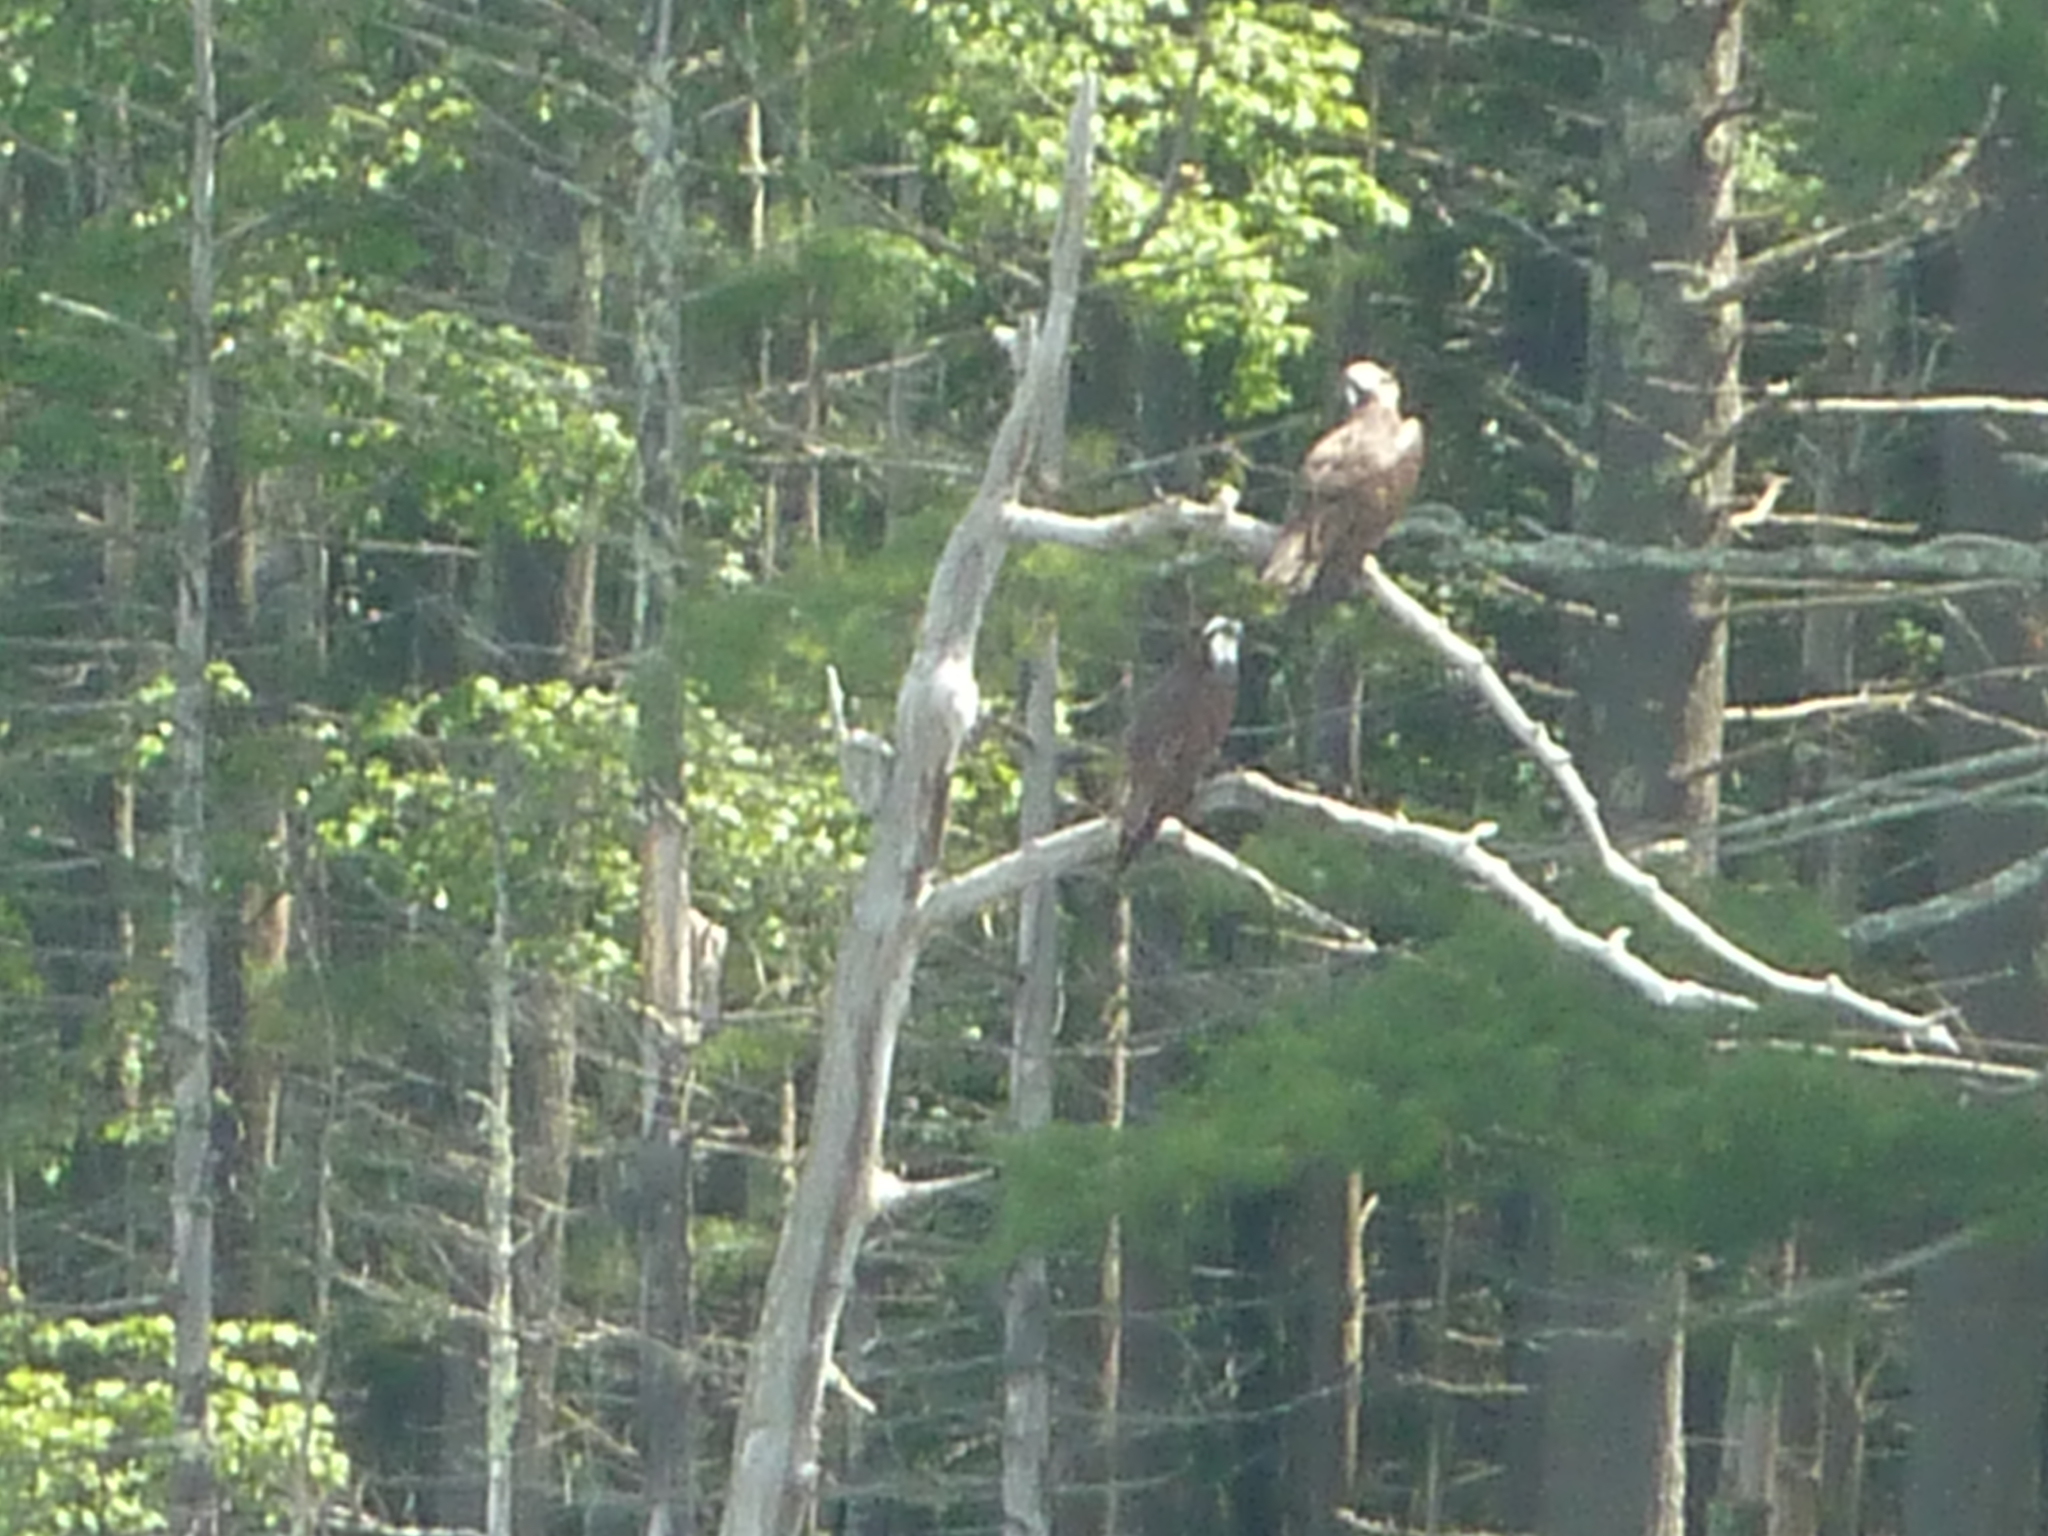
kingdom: Animalia
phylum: Chordata
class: Aves
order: Accipitriformes
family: Pandionidae
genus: Pandion
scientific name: Pandion haliaetus
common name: Osprey
